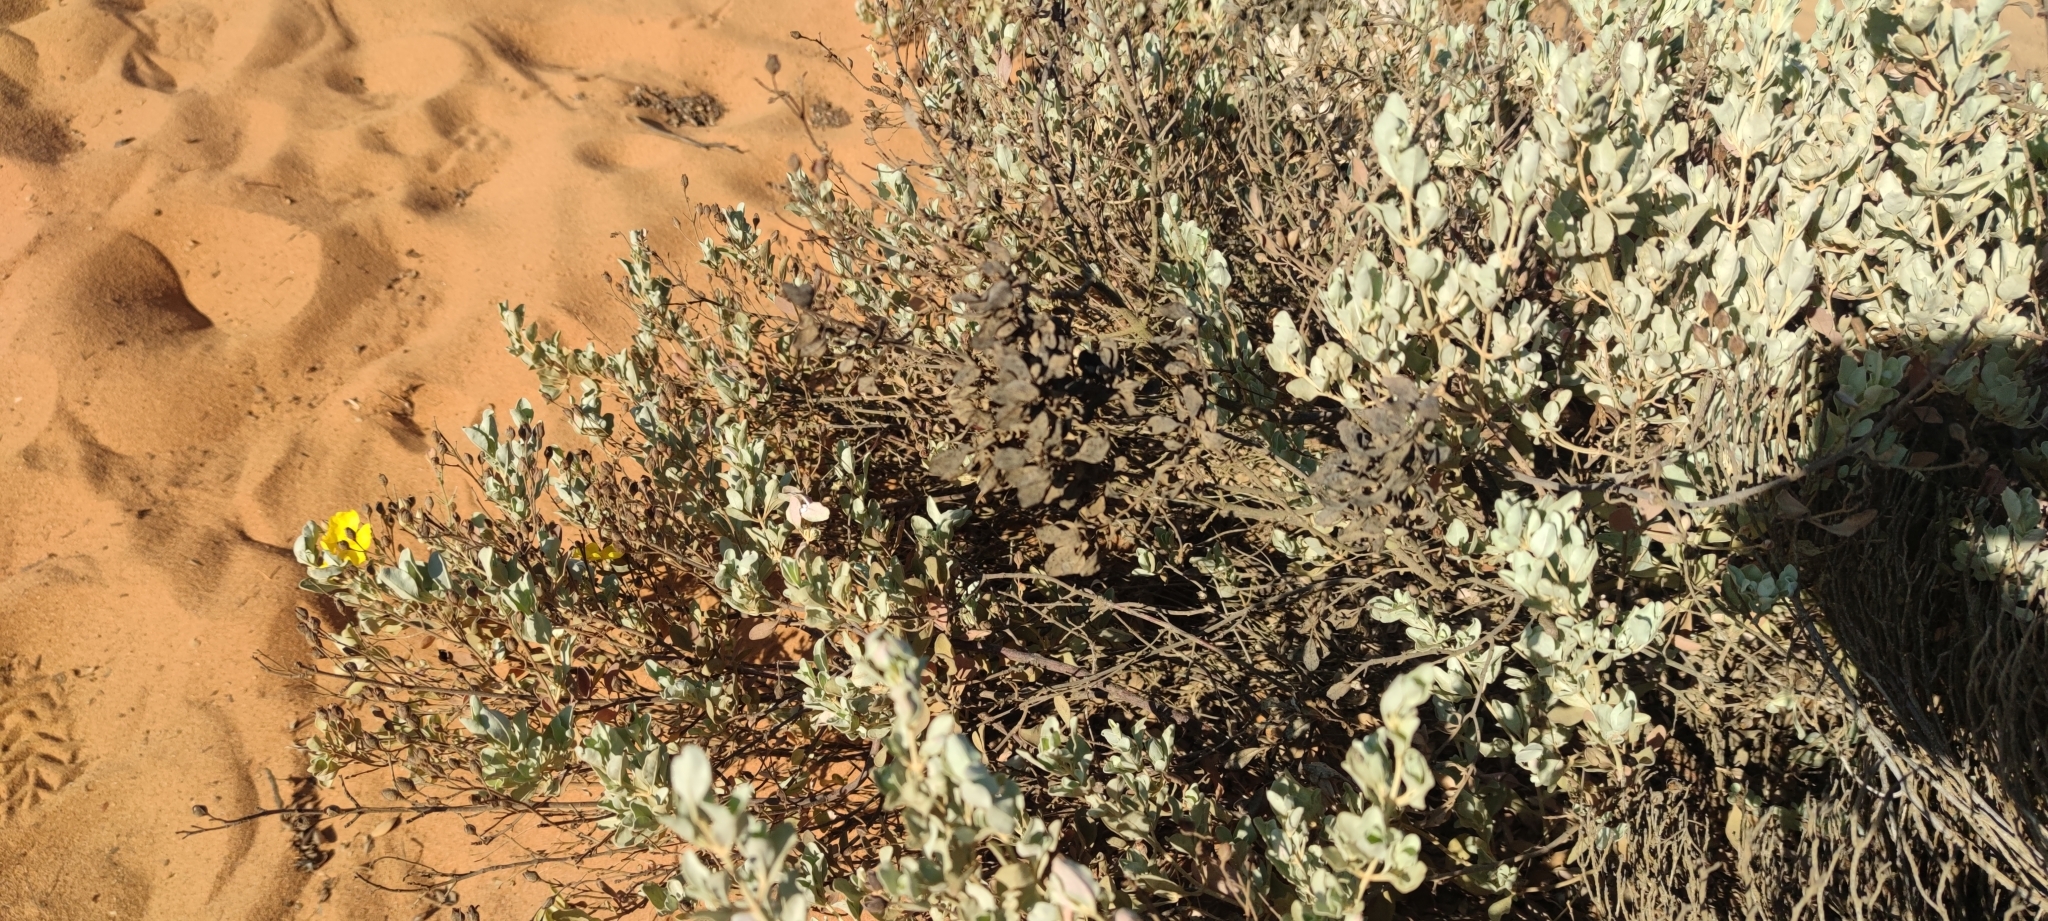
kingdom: Plantae
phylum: Tracheophyta
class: Magnoliopsida
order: Malvales
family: Cistaceae
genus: Halimium
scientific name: Halimium halimifolium
